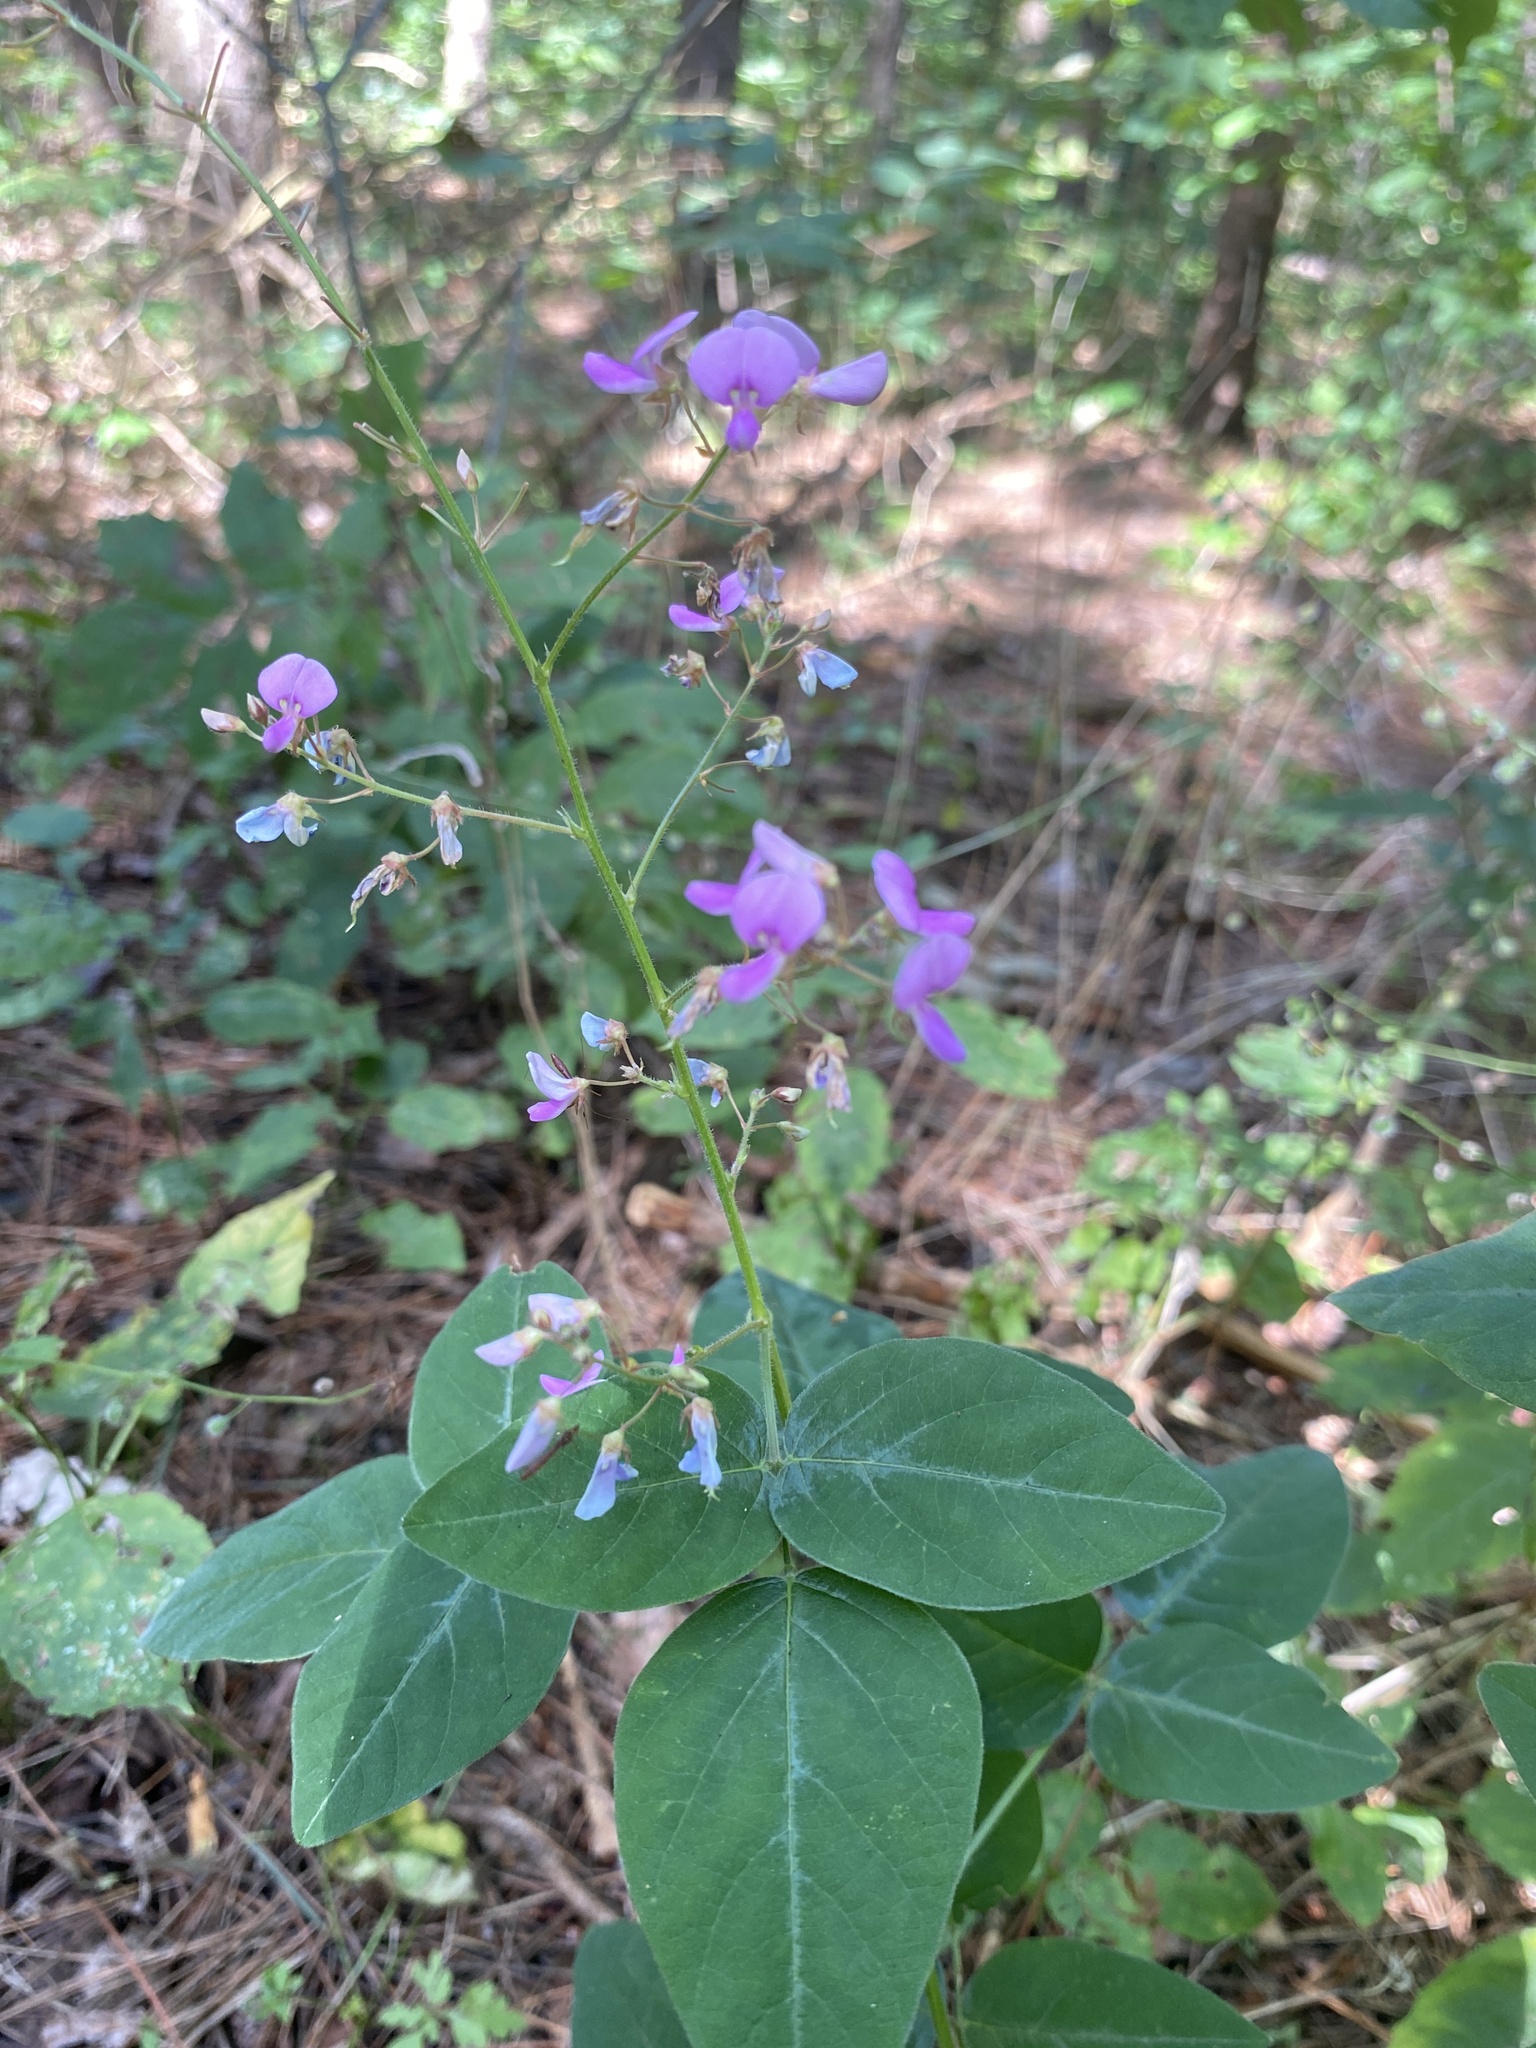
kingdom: Plantae
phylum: Tracheophyta
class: Magnoliopsida
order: Fabales
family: Fabaceae
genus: Desmodium
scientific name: Desmodium perplexum
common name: Perplexed tick trefoil
